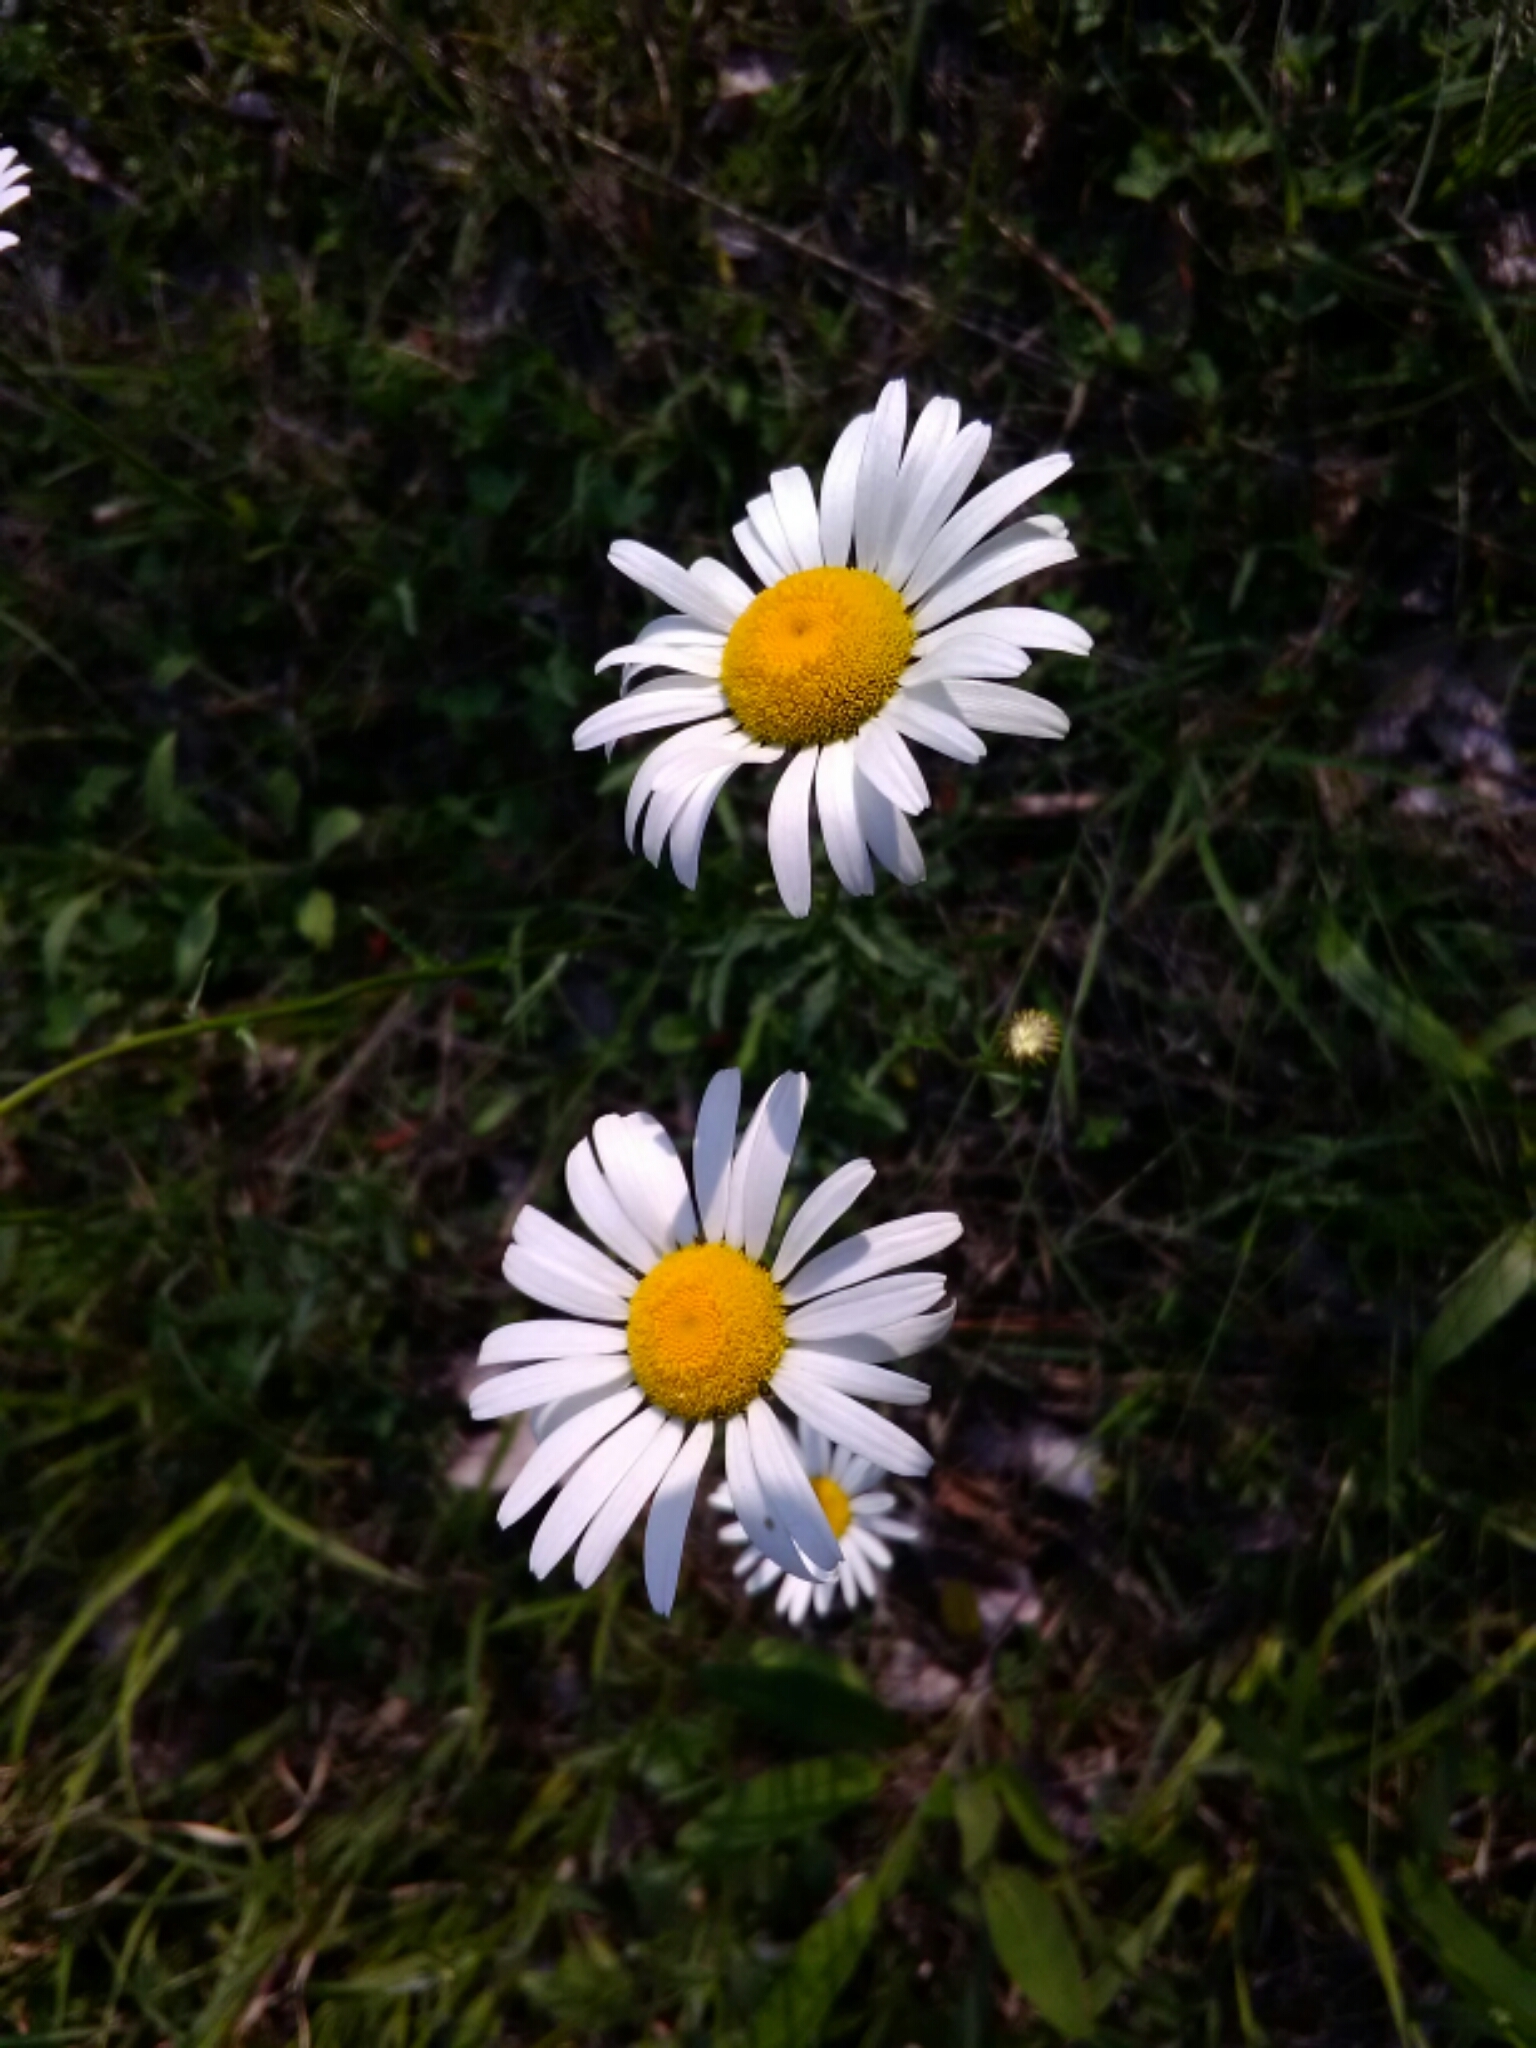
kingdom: Plantae
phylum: Tracheophyta
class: Magnoliopsida
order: Asterales
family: Asteraceae
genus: Leucanthemum
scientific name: Leucanthemum vulgare
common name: Oxeye daisy
